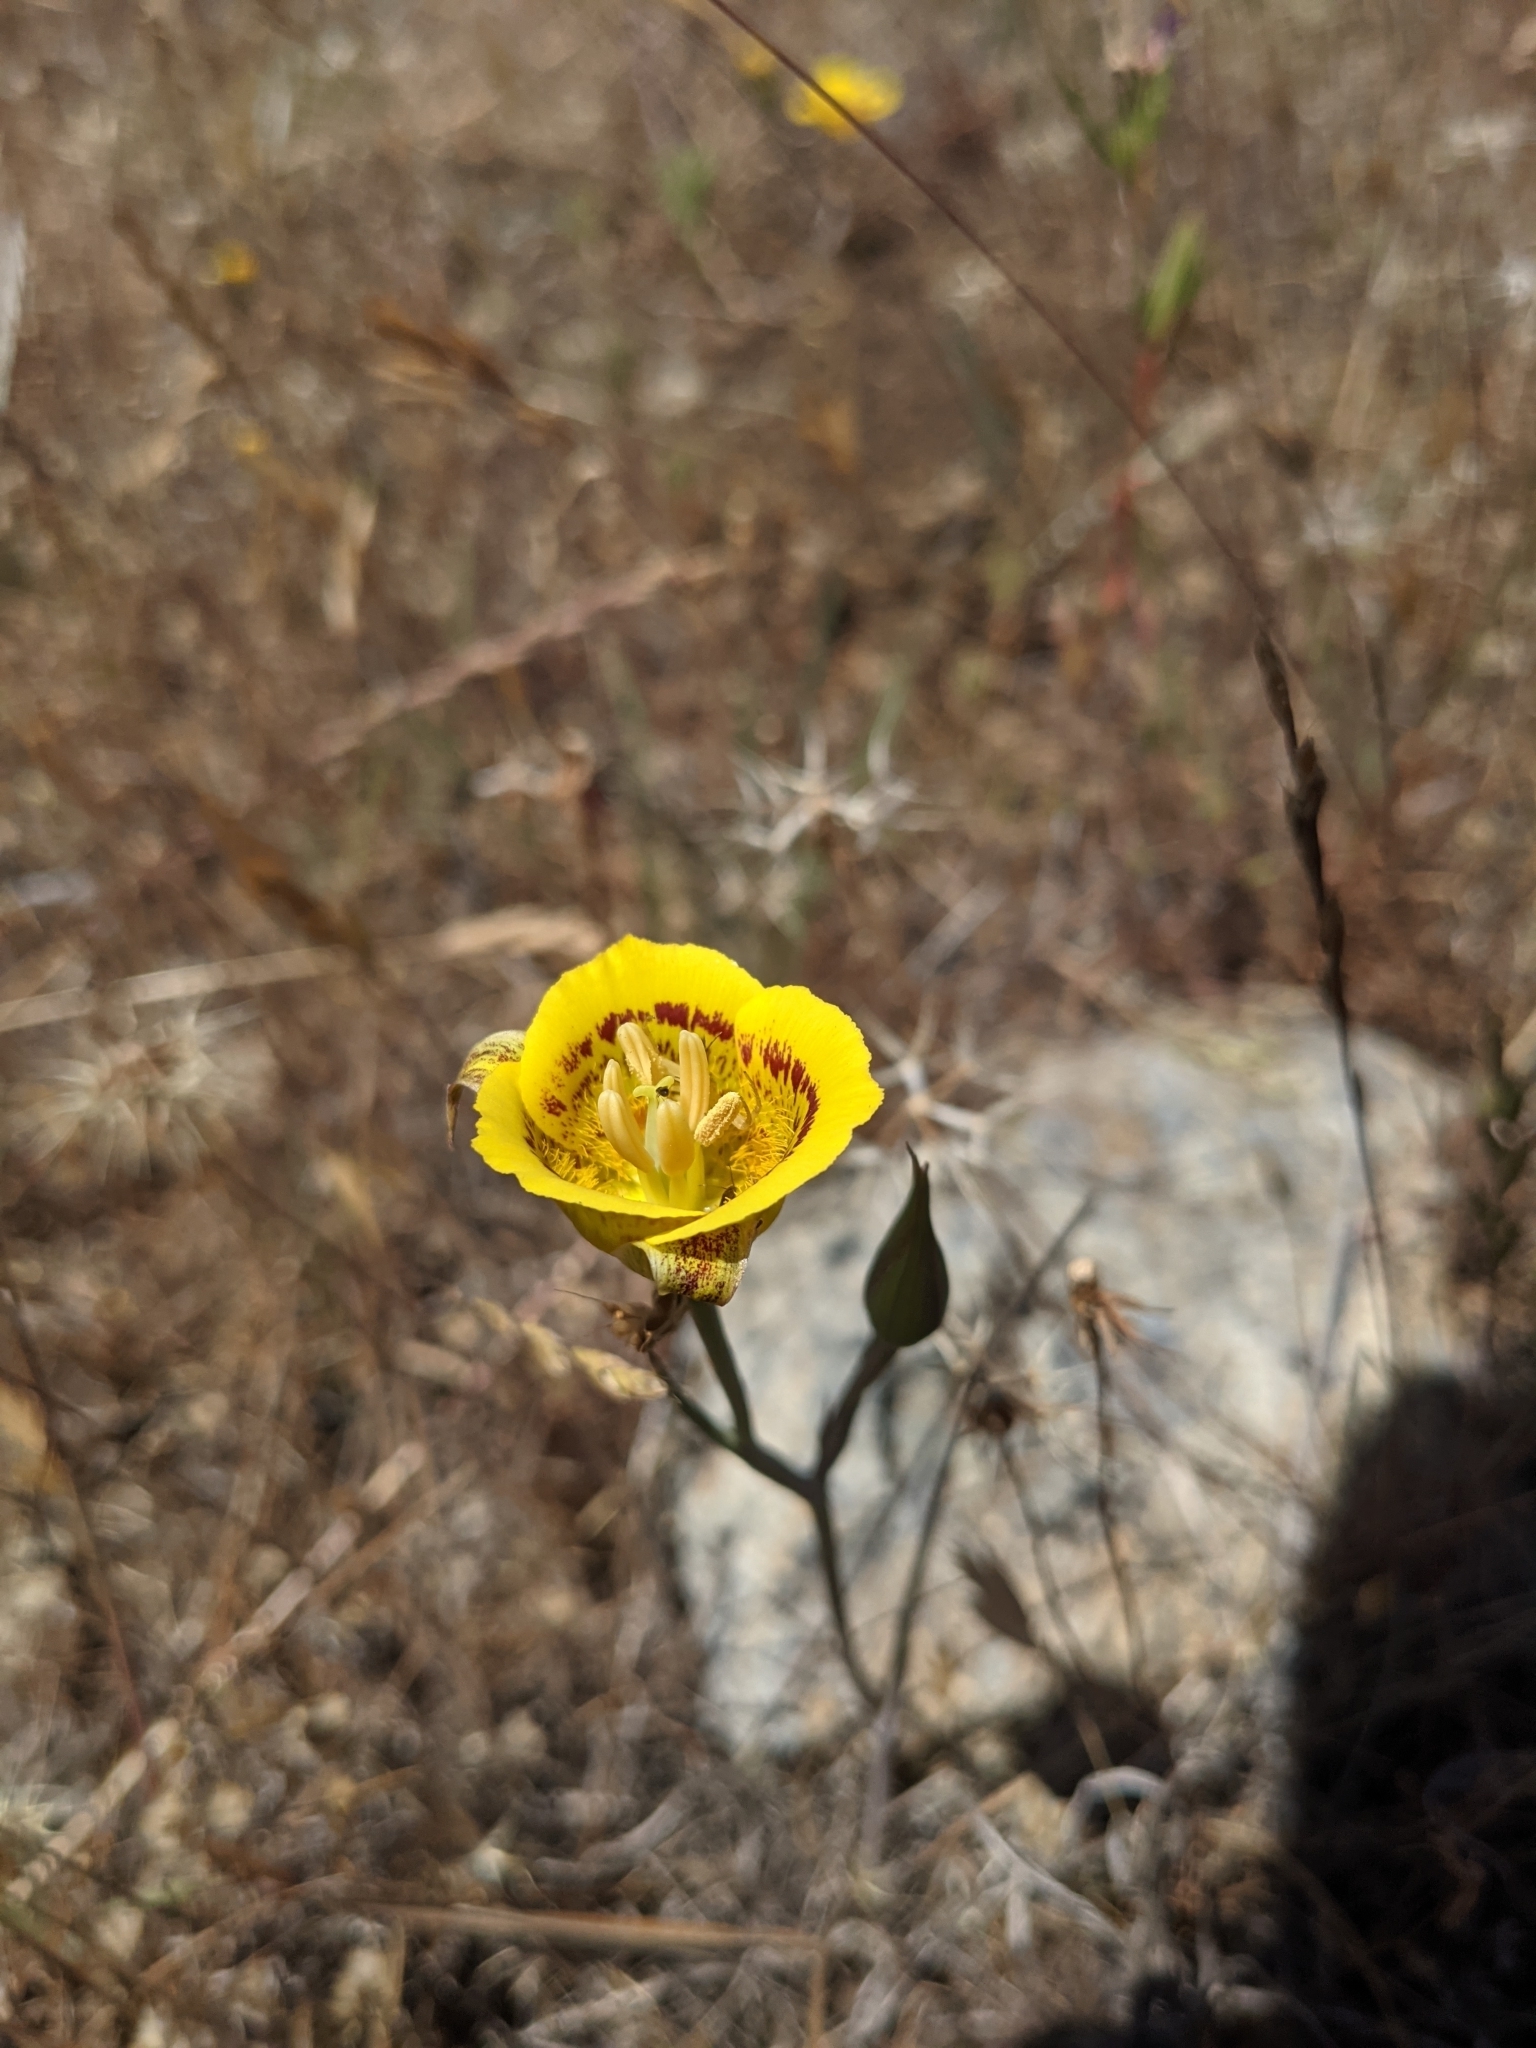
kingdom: Plantae
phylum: Tracheophyta
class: Liliopsida
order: Liliales
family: Liliaceae
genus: Calochortus
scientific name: Calochortus luteus
